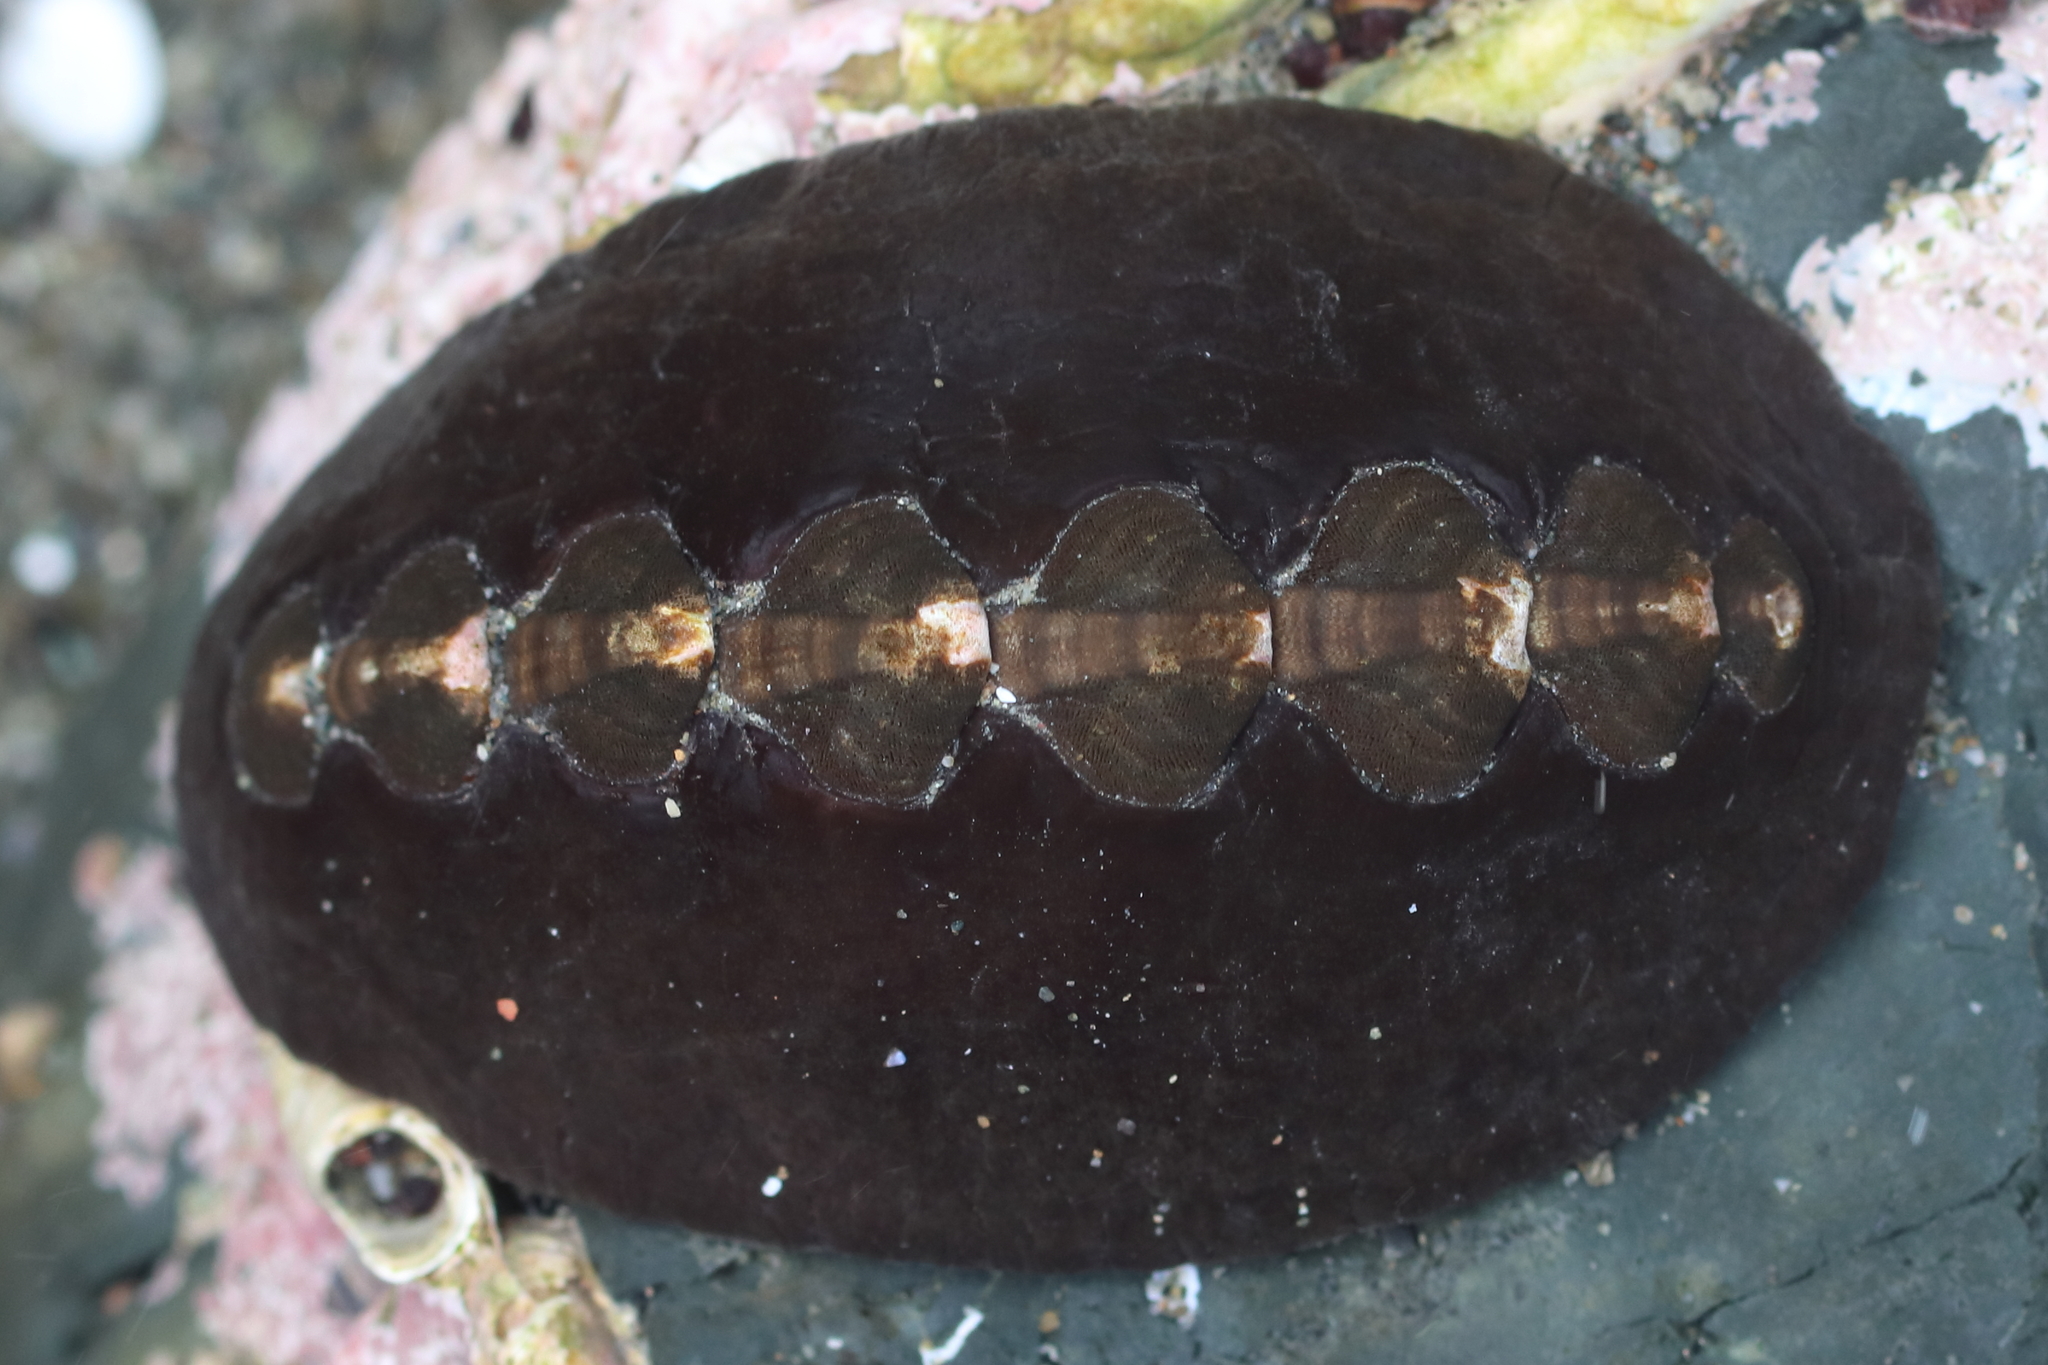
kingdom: Animalia
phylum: Mollusca
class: Polyplacophora
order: Chitonida
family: Mopaliidae
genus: Katharina
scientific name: Katharina tunicata
